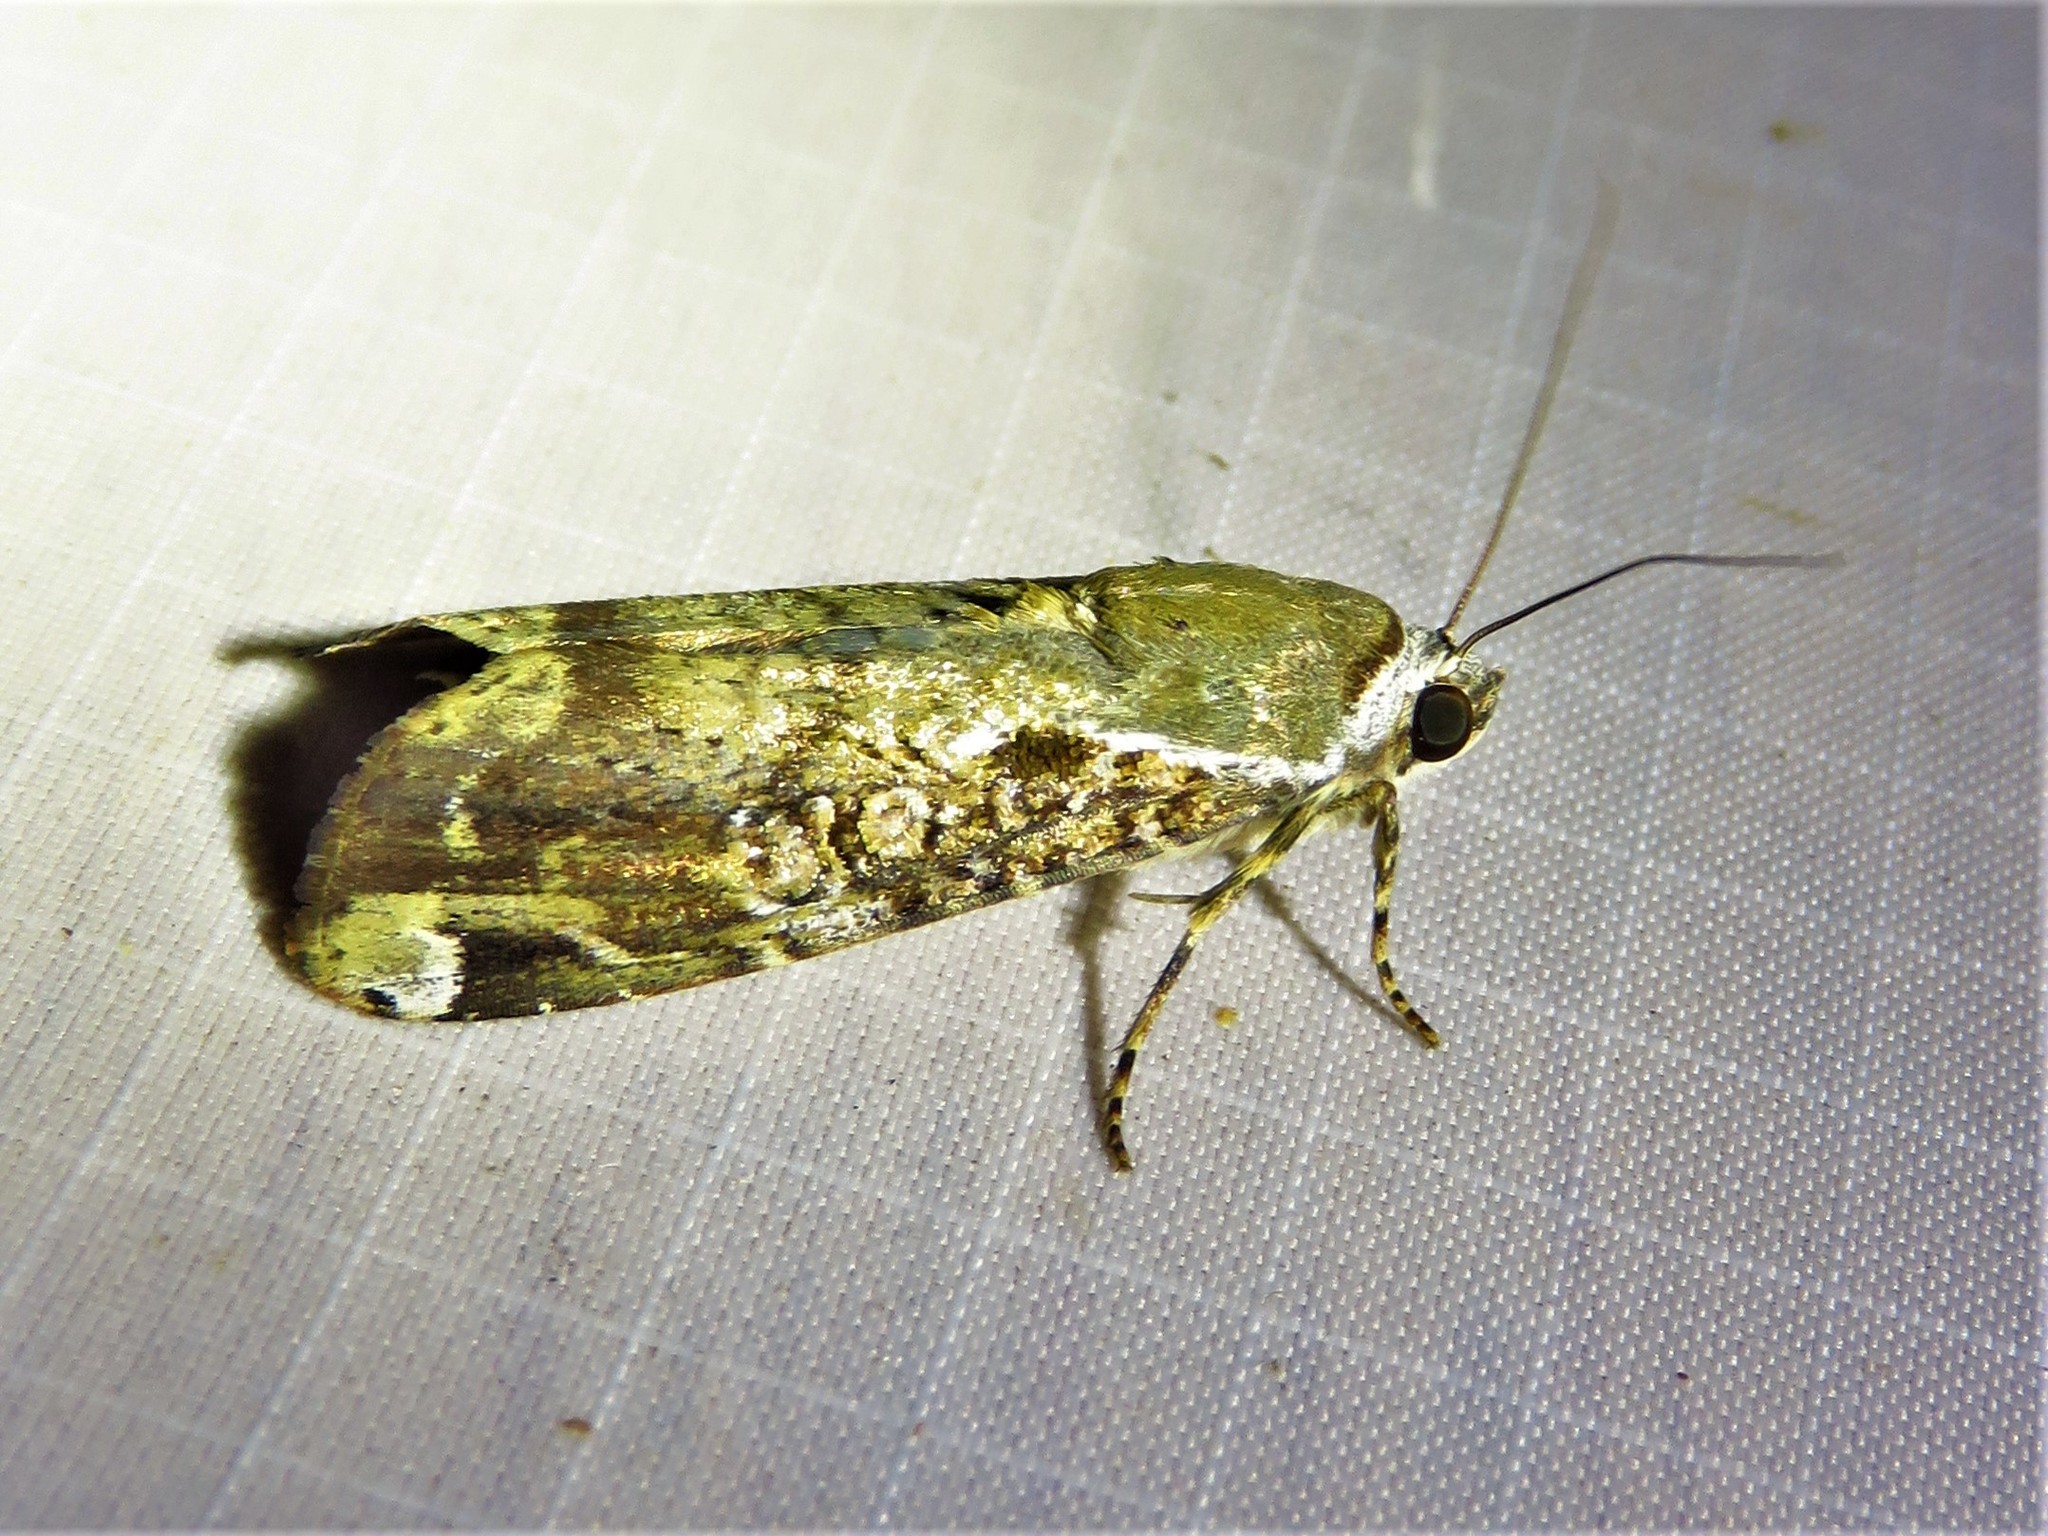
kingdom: Animalia
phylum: Arthropoda
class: Insecta
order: Lepidoptera
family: Noctuidae
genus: Magusa
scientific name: Magusa divaricata
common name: Orb narrow-winged moth
